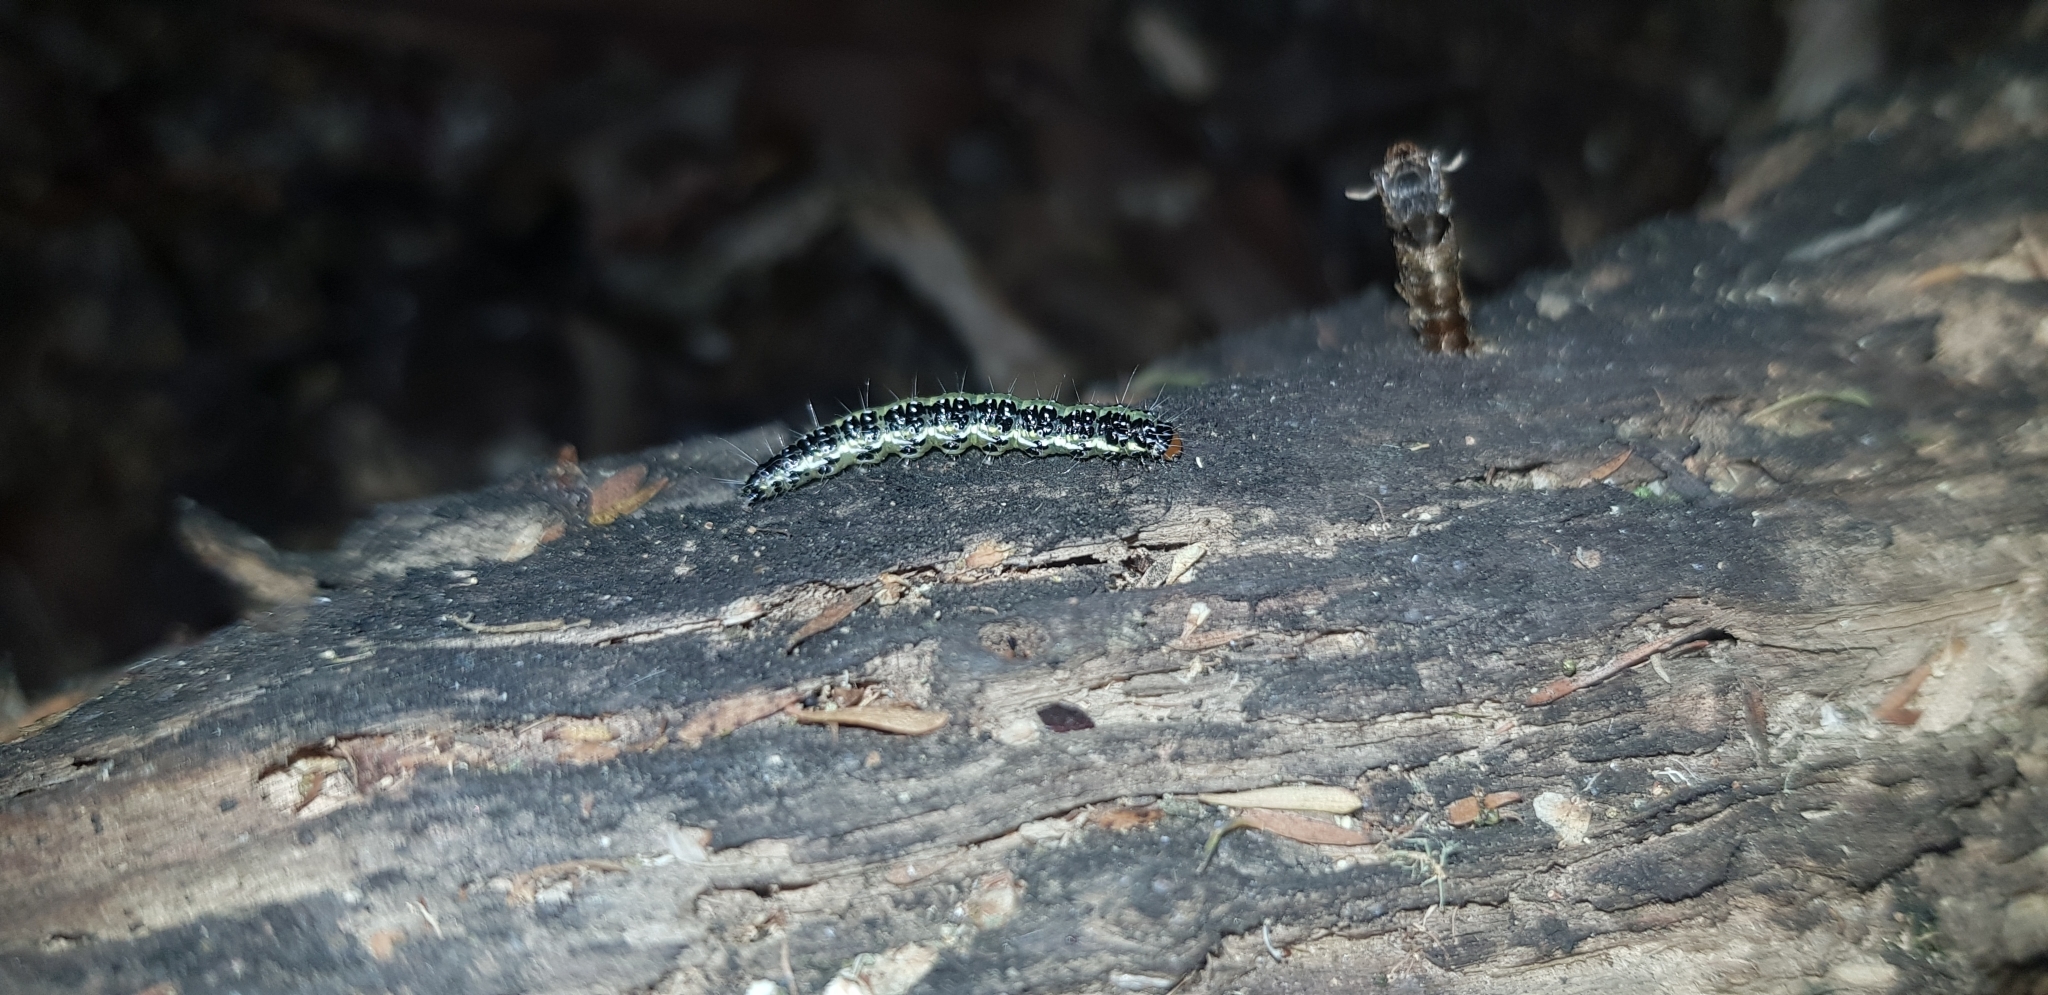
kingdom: Animalia
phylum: Arthropoda
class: Insecta
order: Lepidoptera
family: Crambidae
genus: Uresiphita
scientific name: Uresiphita
